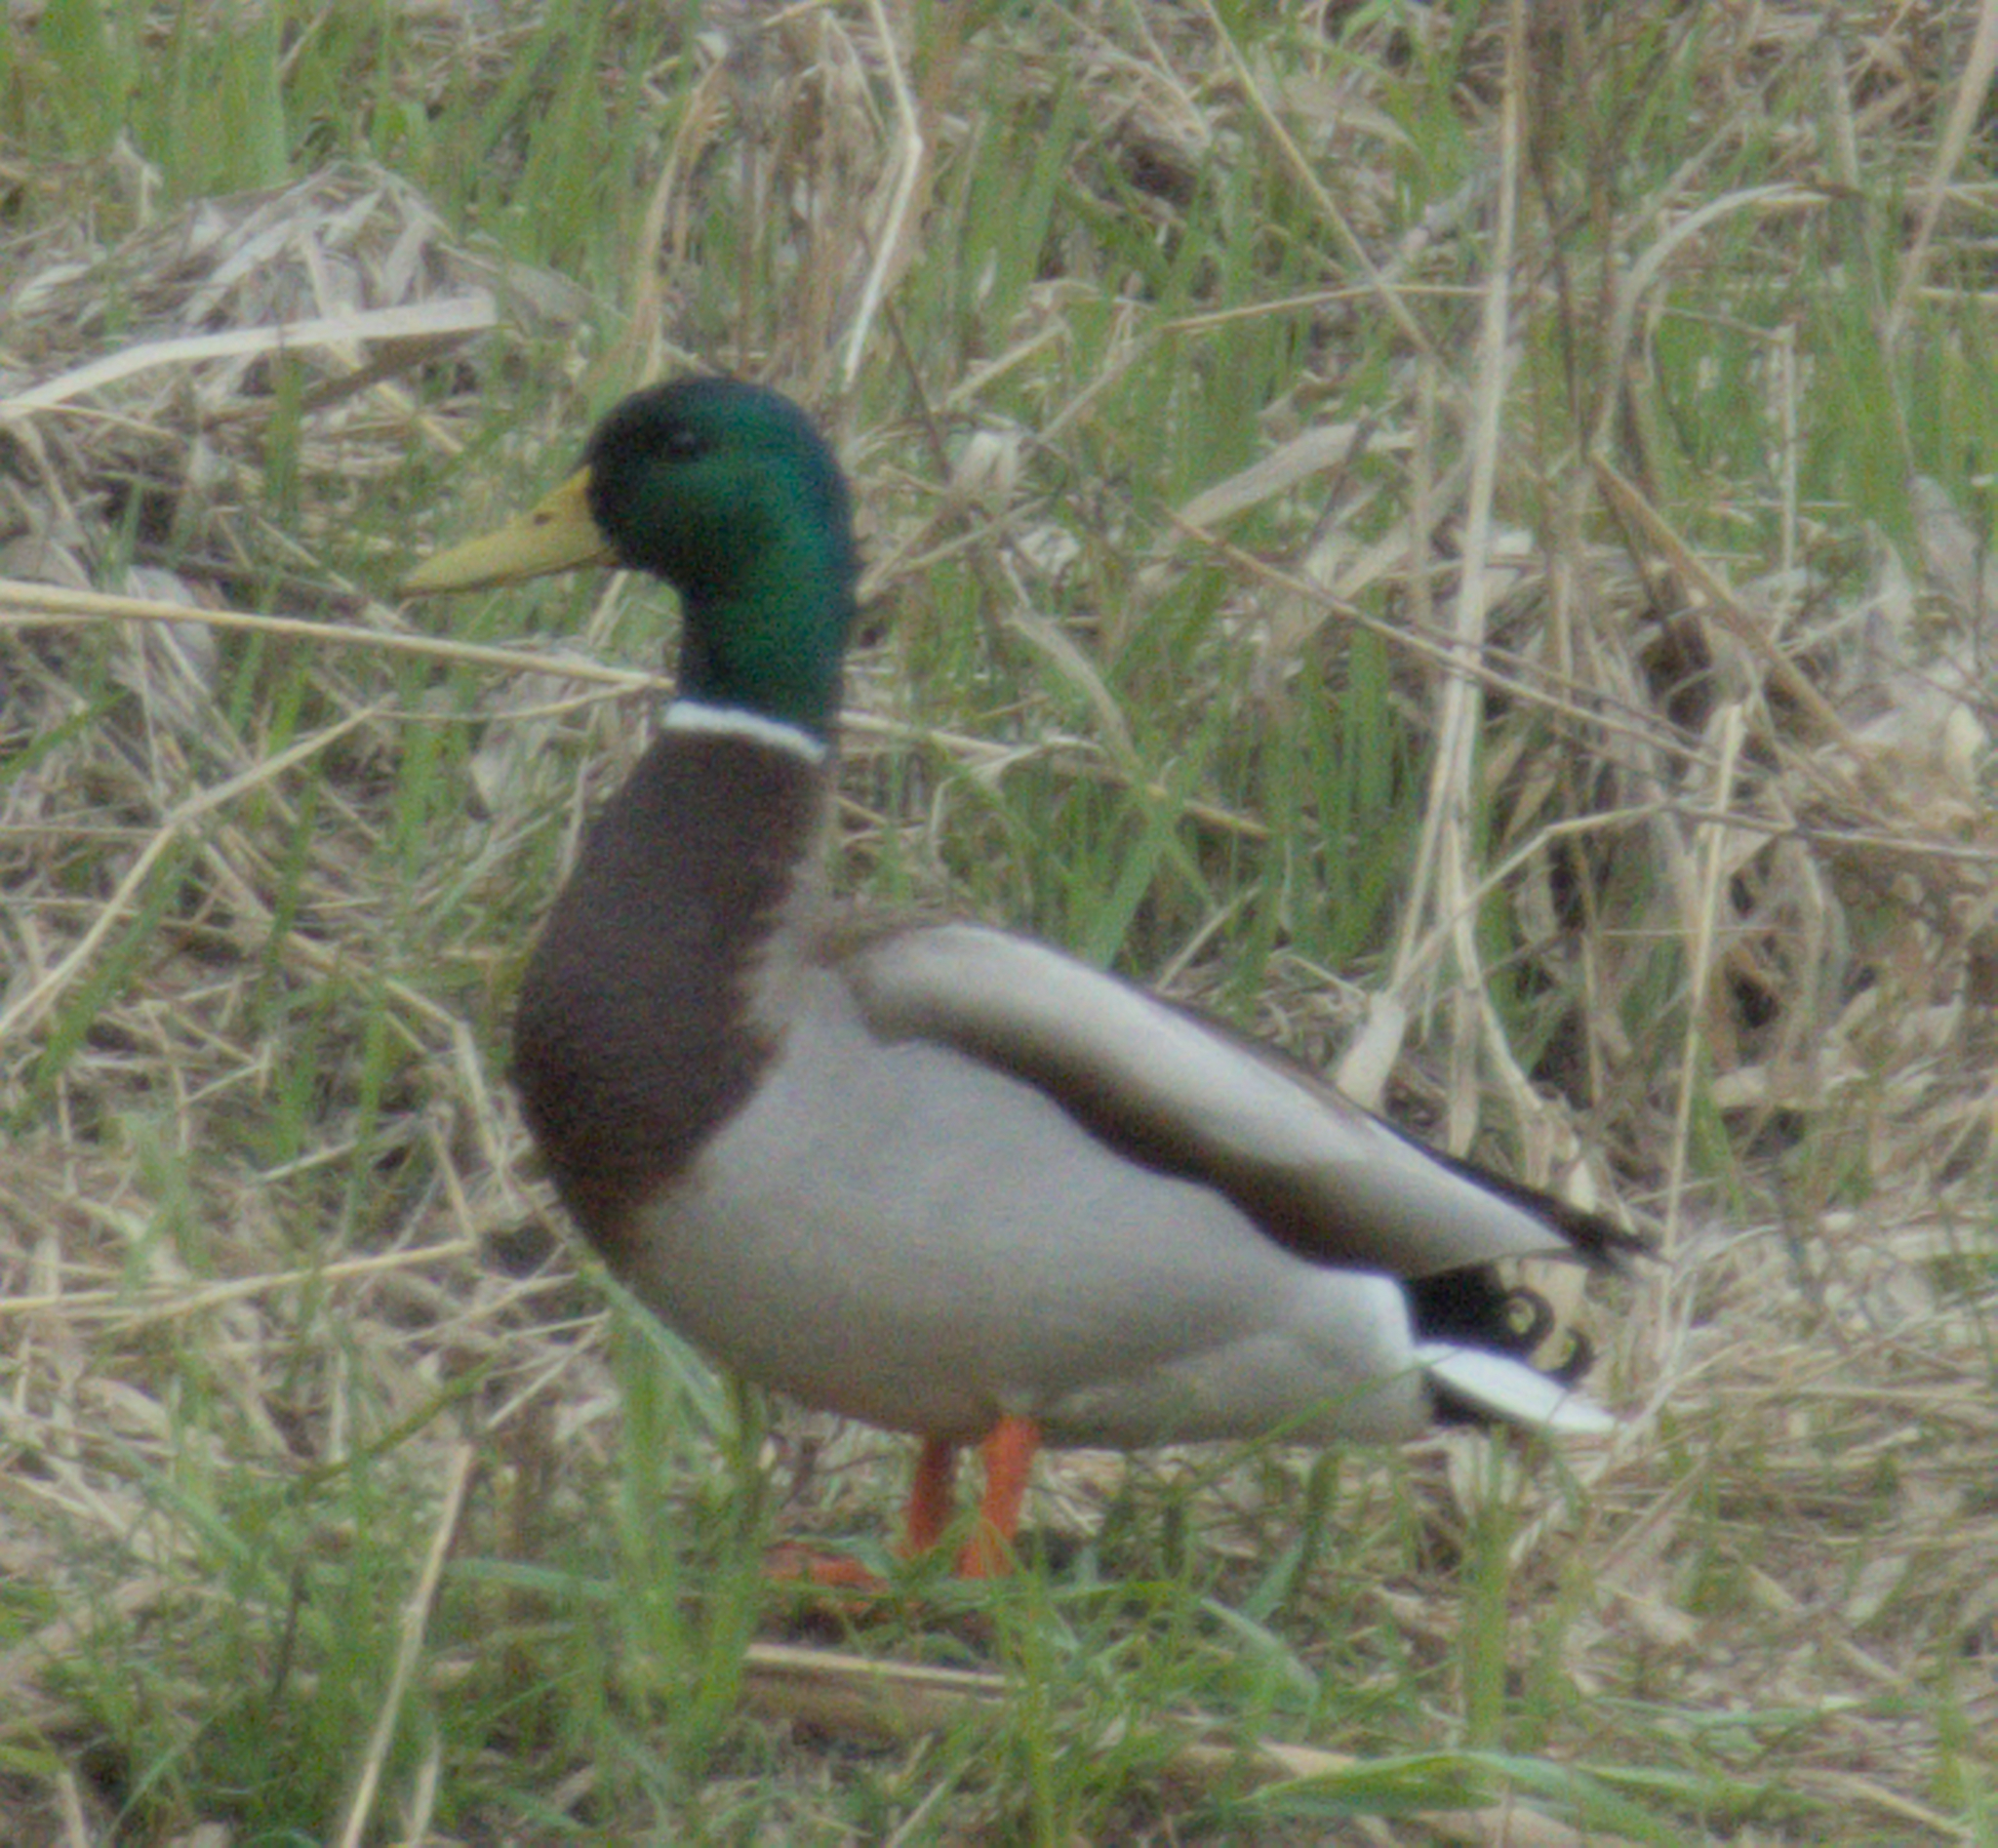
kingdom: Animalia
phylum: Chordata
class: Aves
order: Anseriformes
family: Anatidae
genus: Anas
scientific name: Anas platyrhynchos
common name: Mallard
